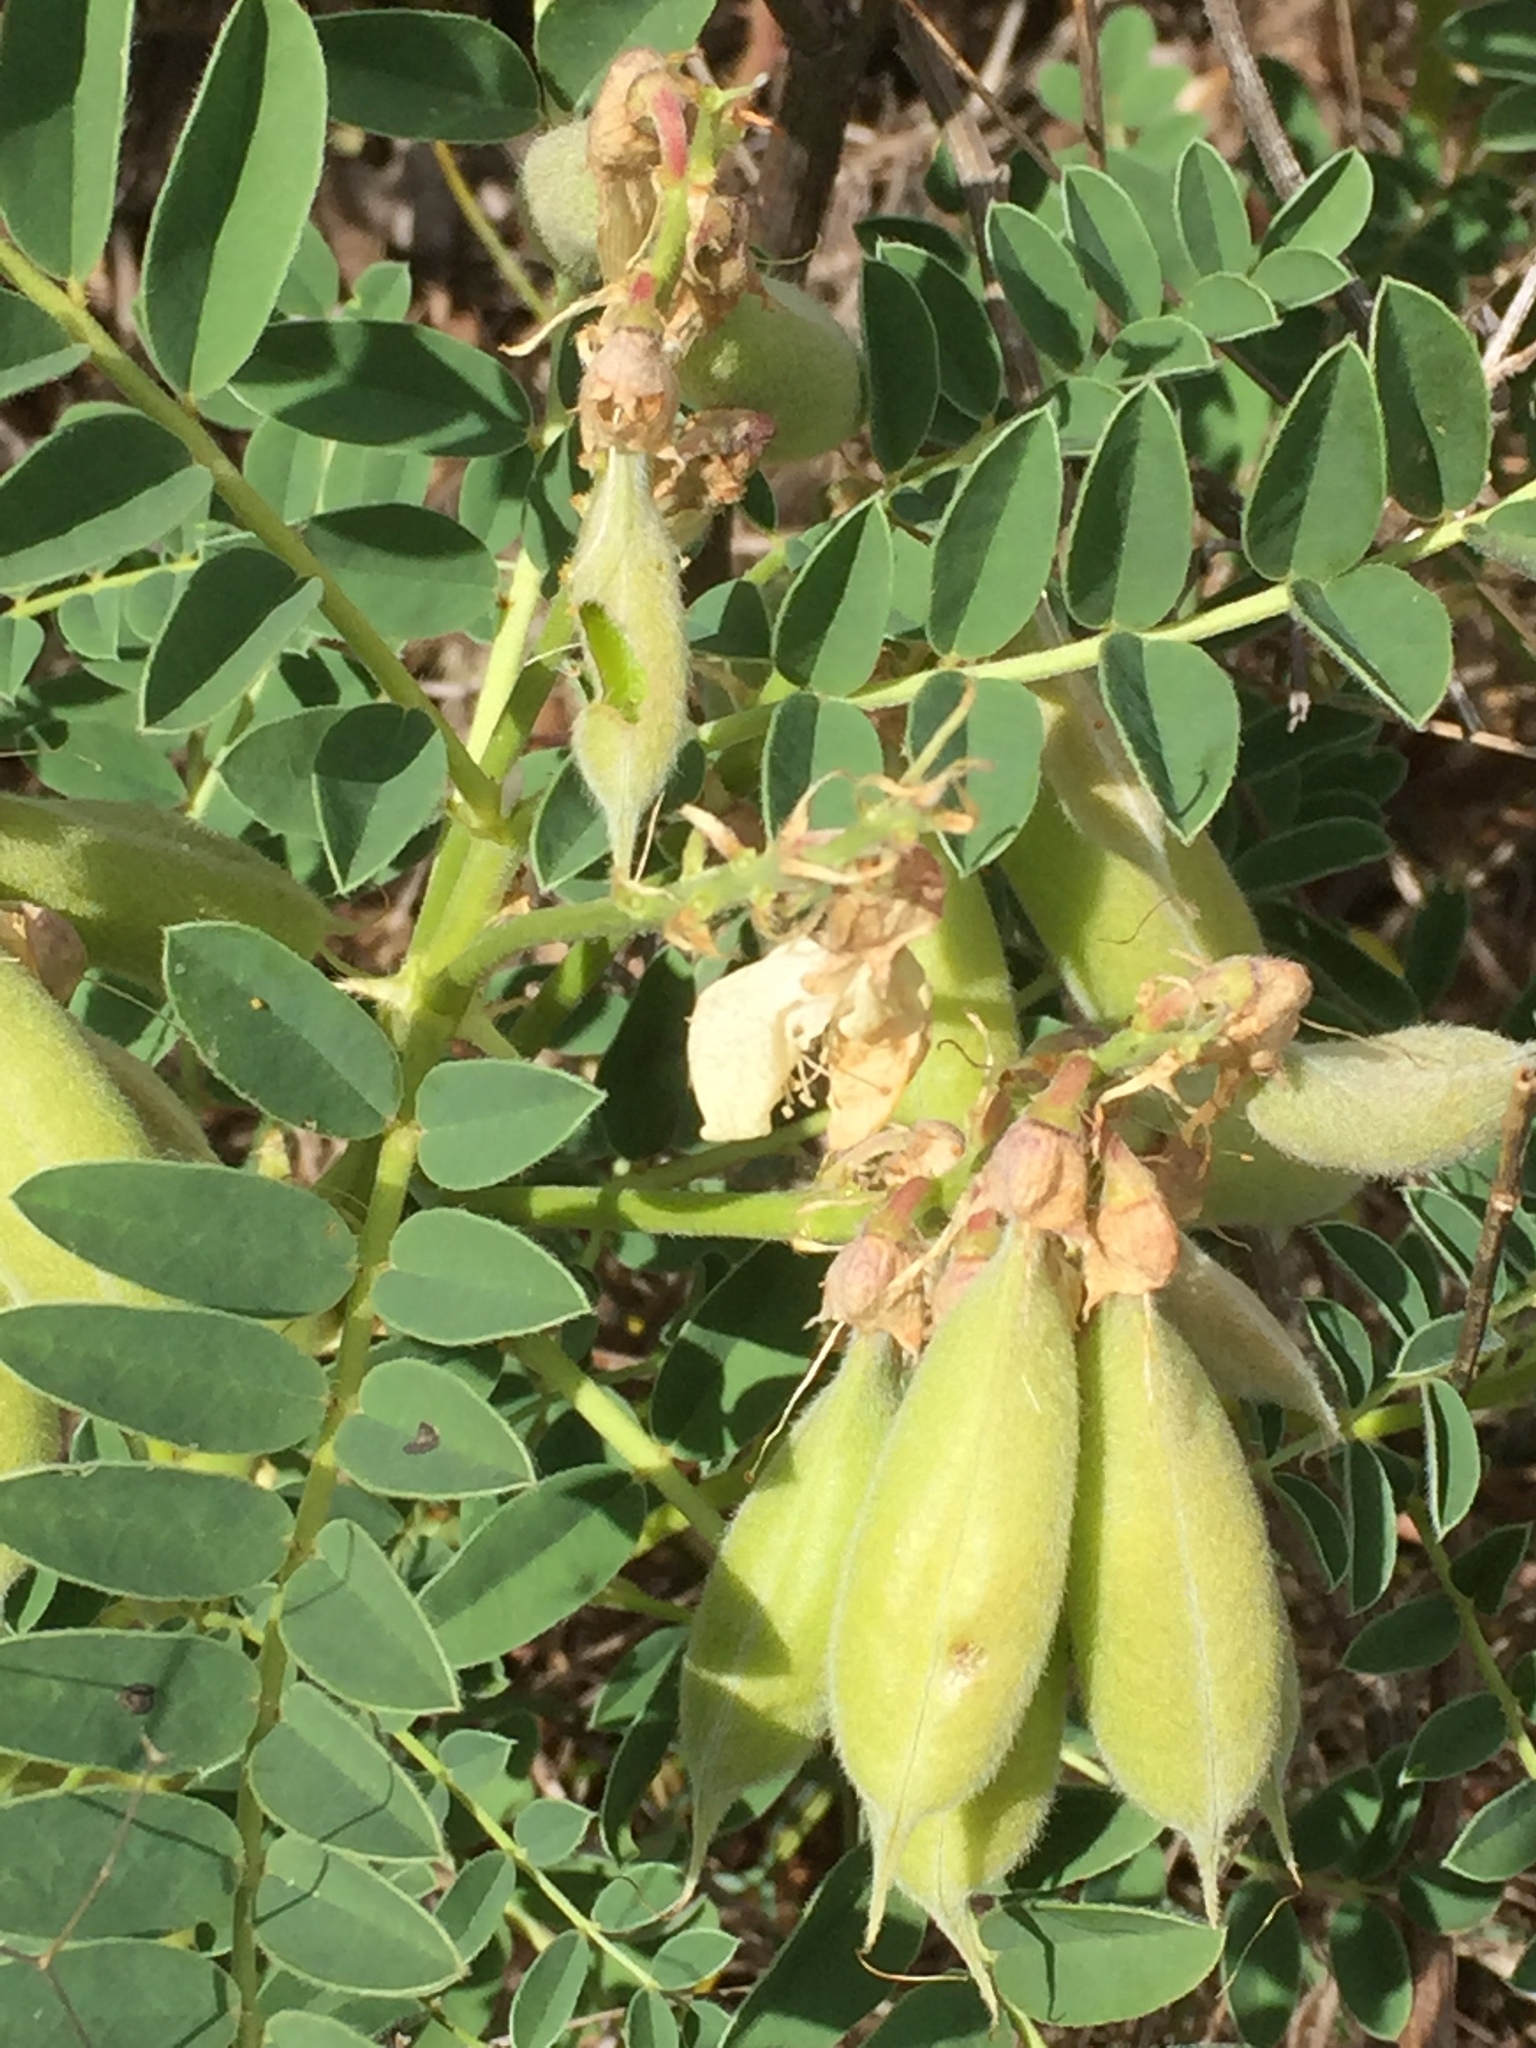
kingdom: Plantae
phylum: Tracheophyta
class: Magnoliopsida
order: Fabales
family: Fabaceae
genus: Erophaca
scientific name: Erophaca baetica
